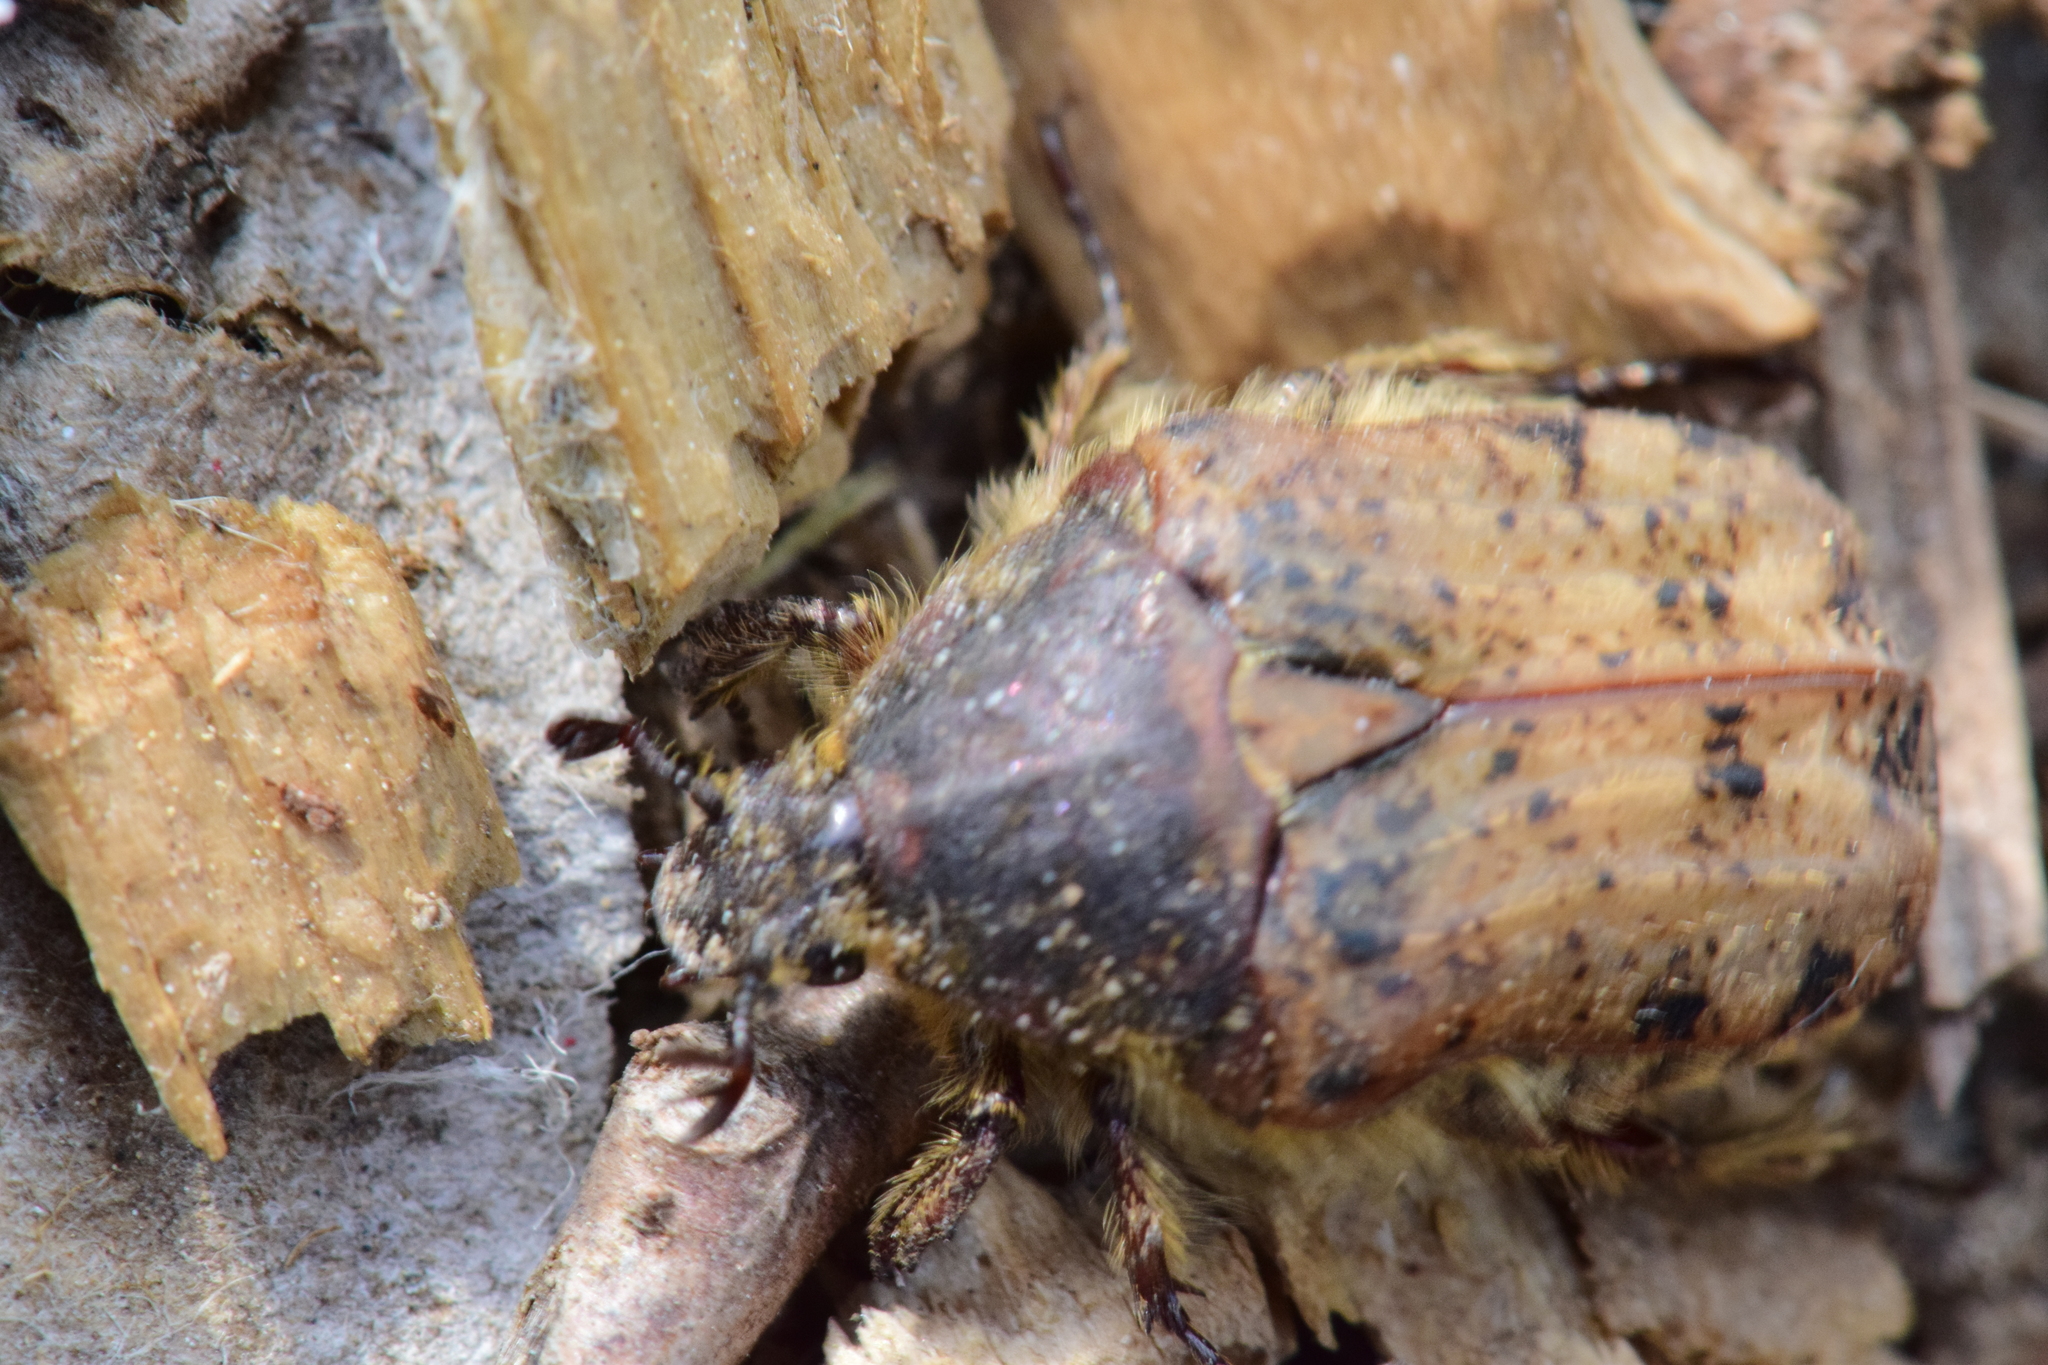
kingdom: Animalia
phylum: Arthropoda
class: Insecta
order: Coleoptera
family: Scarabaeidae
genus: Euphoria
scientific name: Euphoria inda
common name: Bumble flower beetle
